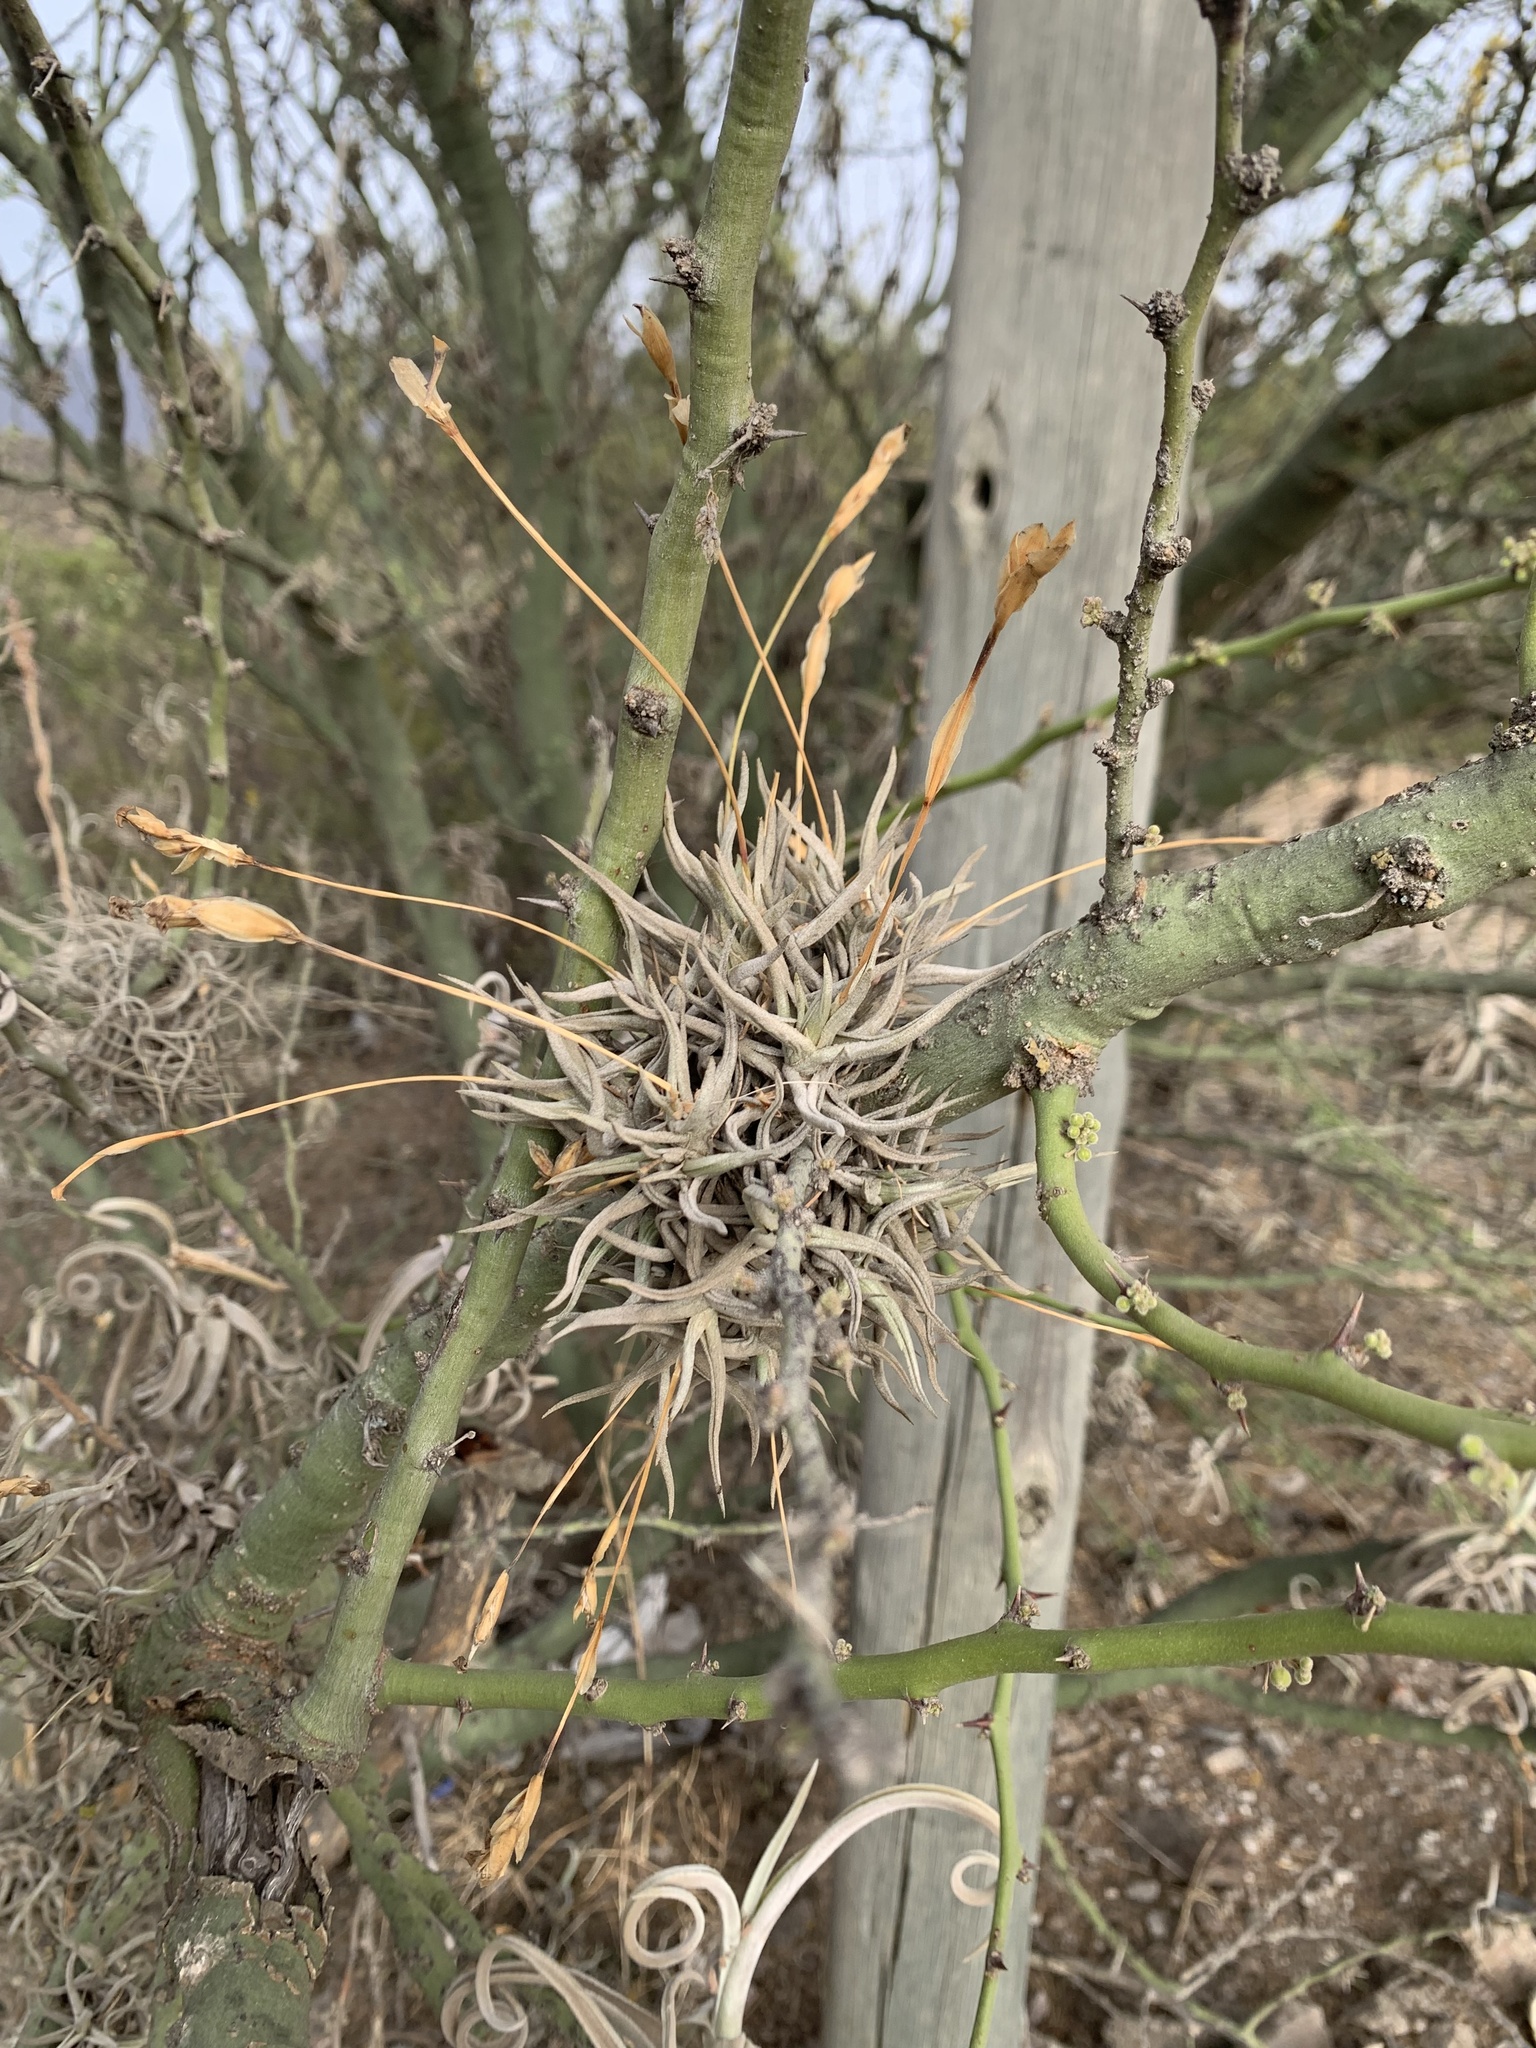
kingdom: Plantae
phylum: Tracheophyta
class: Liliopsida
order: Poales
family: Bromeliaceae
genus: Tillandsia
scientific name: Tillandsia funebris
